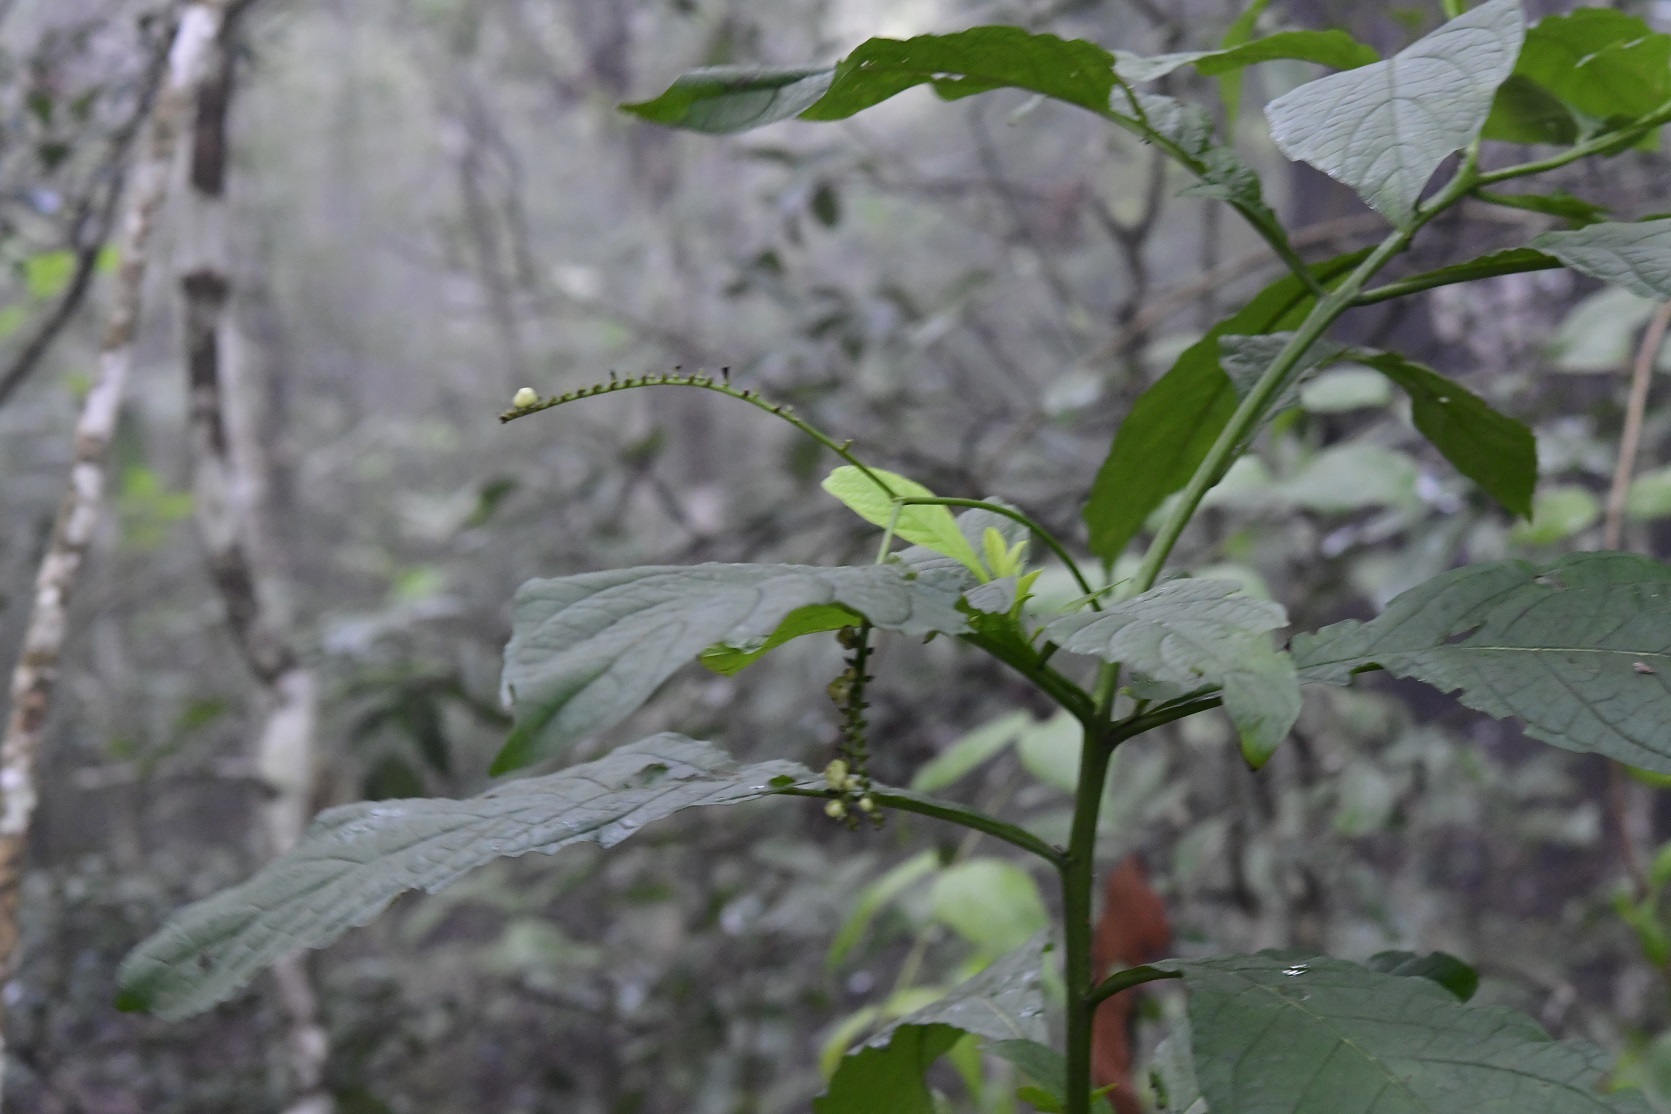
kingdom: Plantae
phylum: Tracheophyta
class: Magnoliopsida
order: Boraginales
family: Heliotropiaceae
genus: Heliotropium
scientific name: Heliotropium
